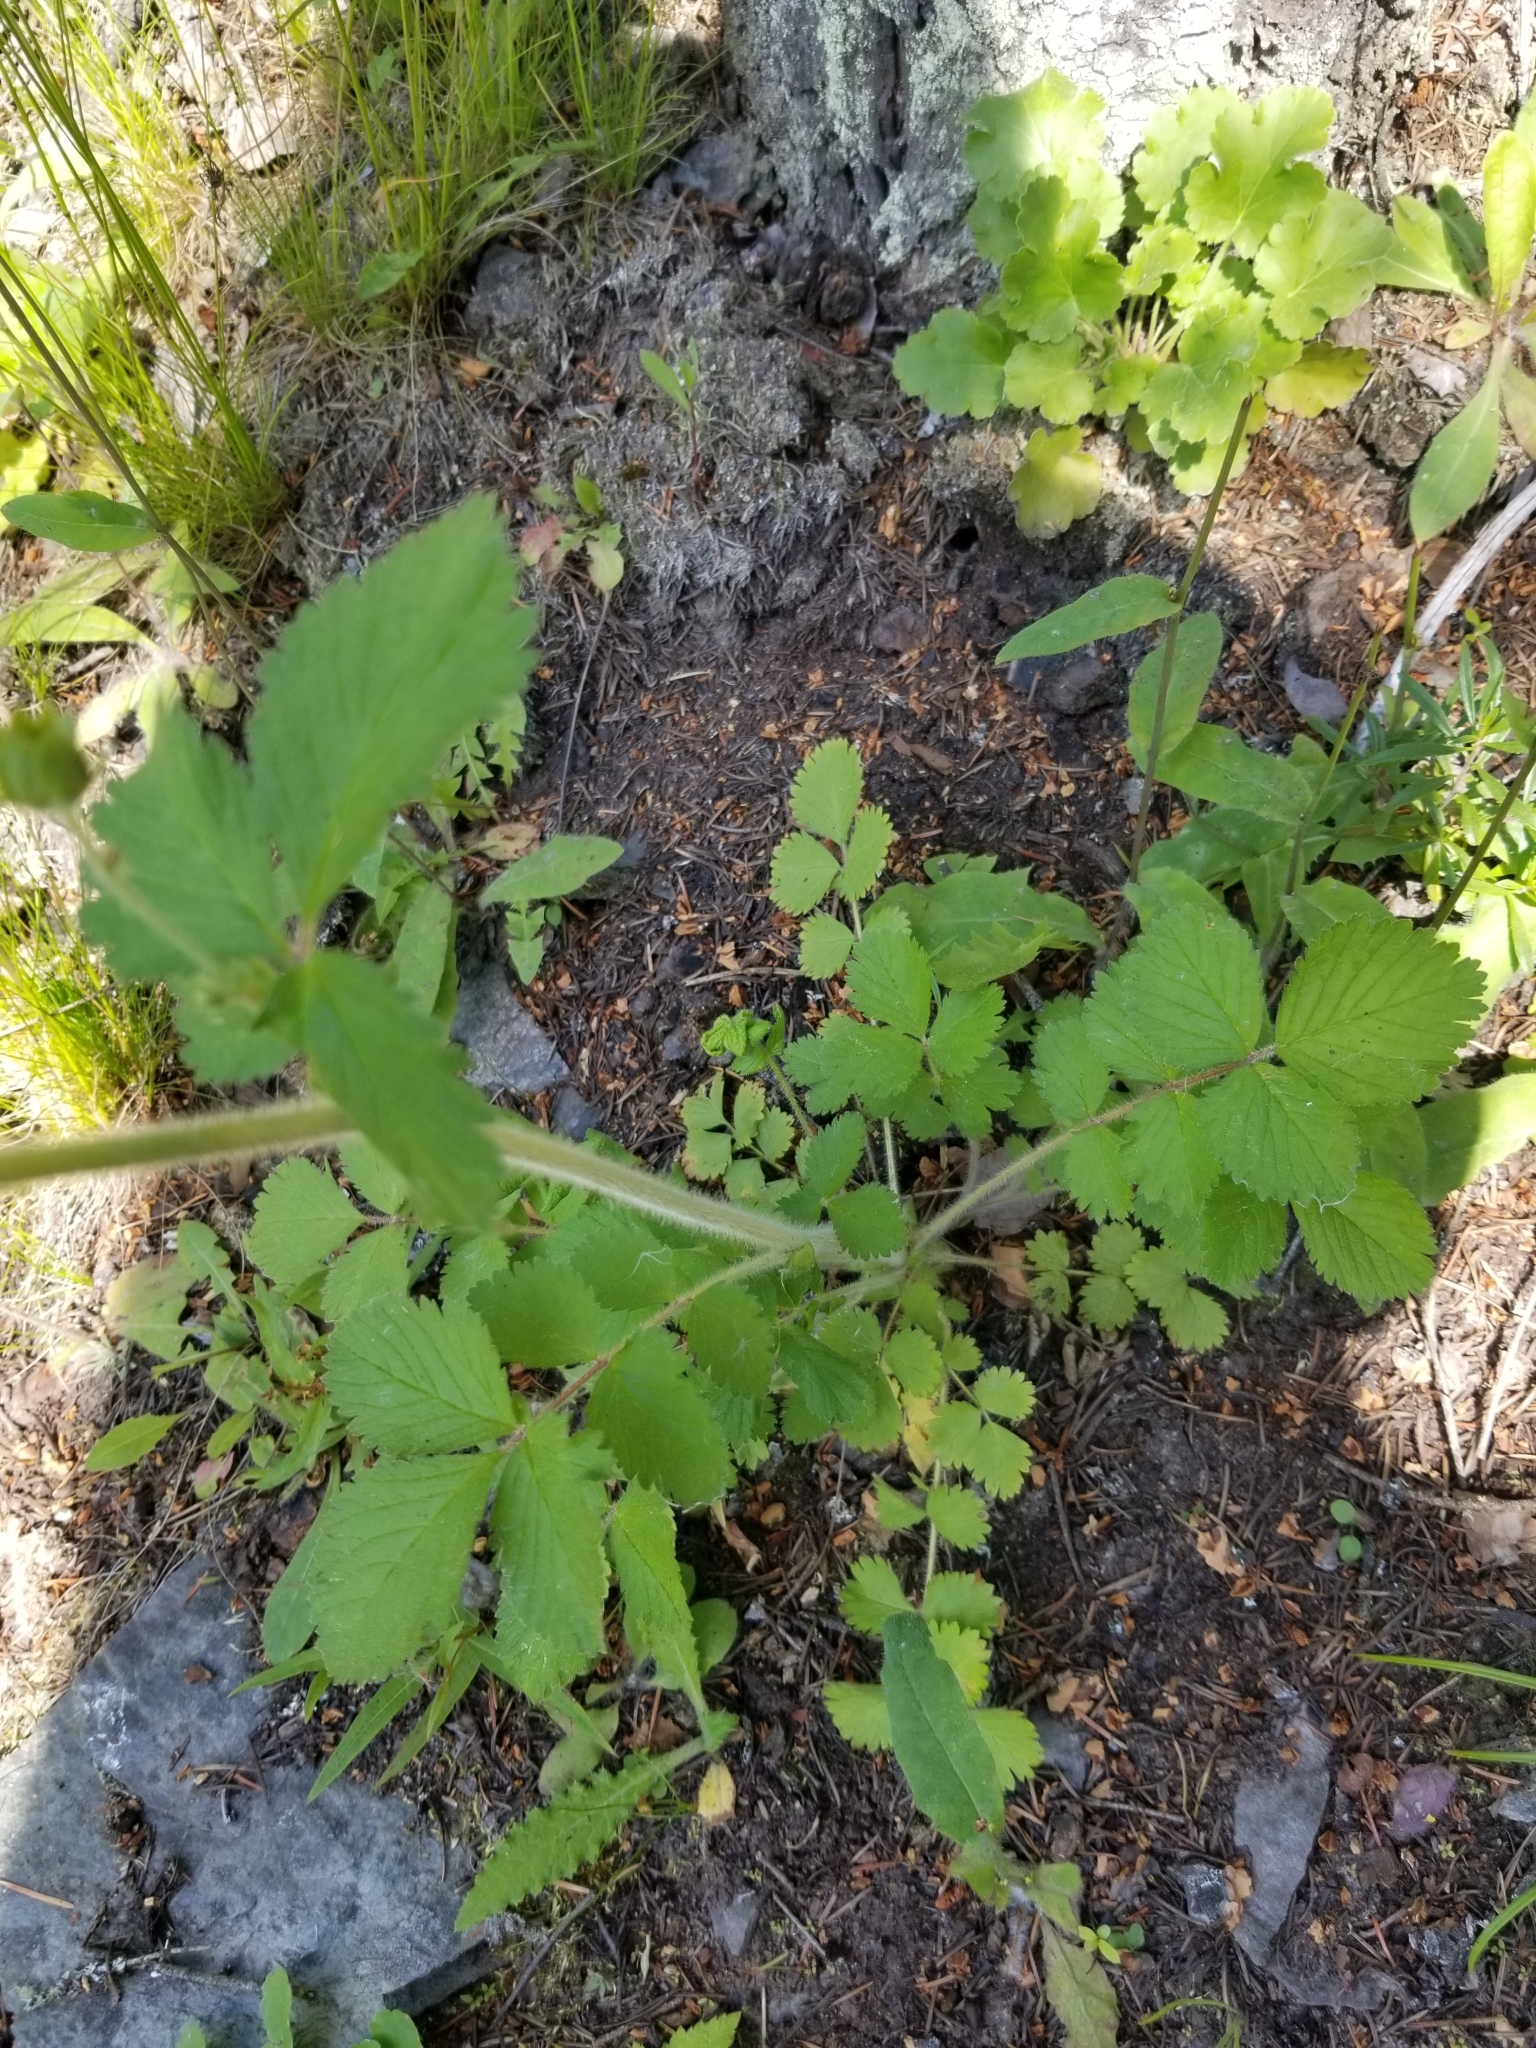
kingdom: Plantae
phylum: Tracheophyta
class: Magnoliopsida
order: Rosales
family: Rosaceae
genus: Drymocallis
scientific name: Drymocallis glandulosa
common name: Sticky cinquefoil
